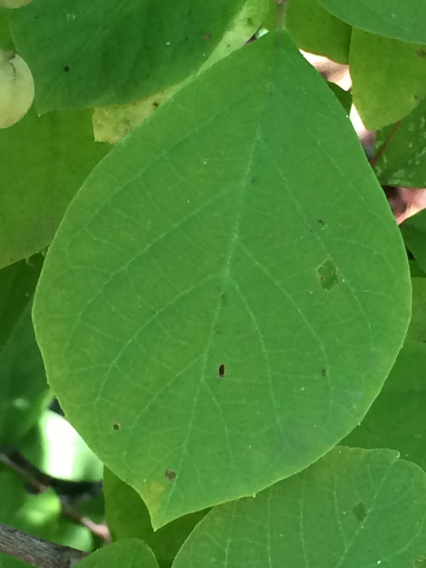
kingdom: Plantae
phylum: Tracheophyta
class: Magnoliopsida
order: Ericales
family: Styracaceae
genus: Styrax
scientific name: Styrax grandifolius
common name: Big-leaf snowbell
